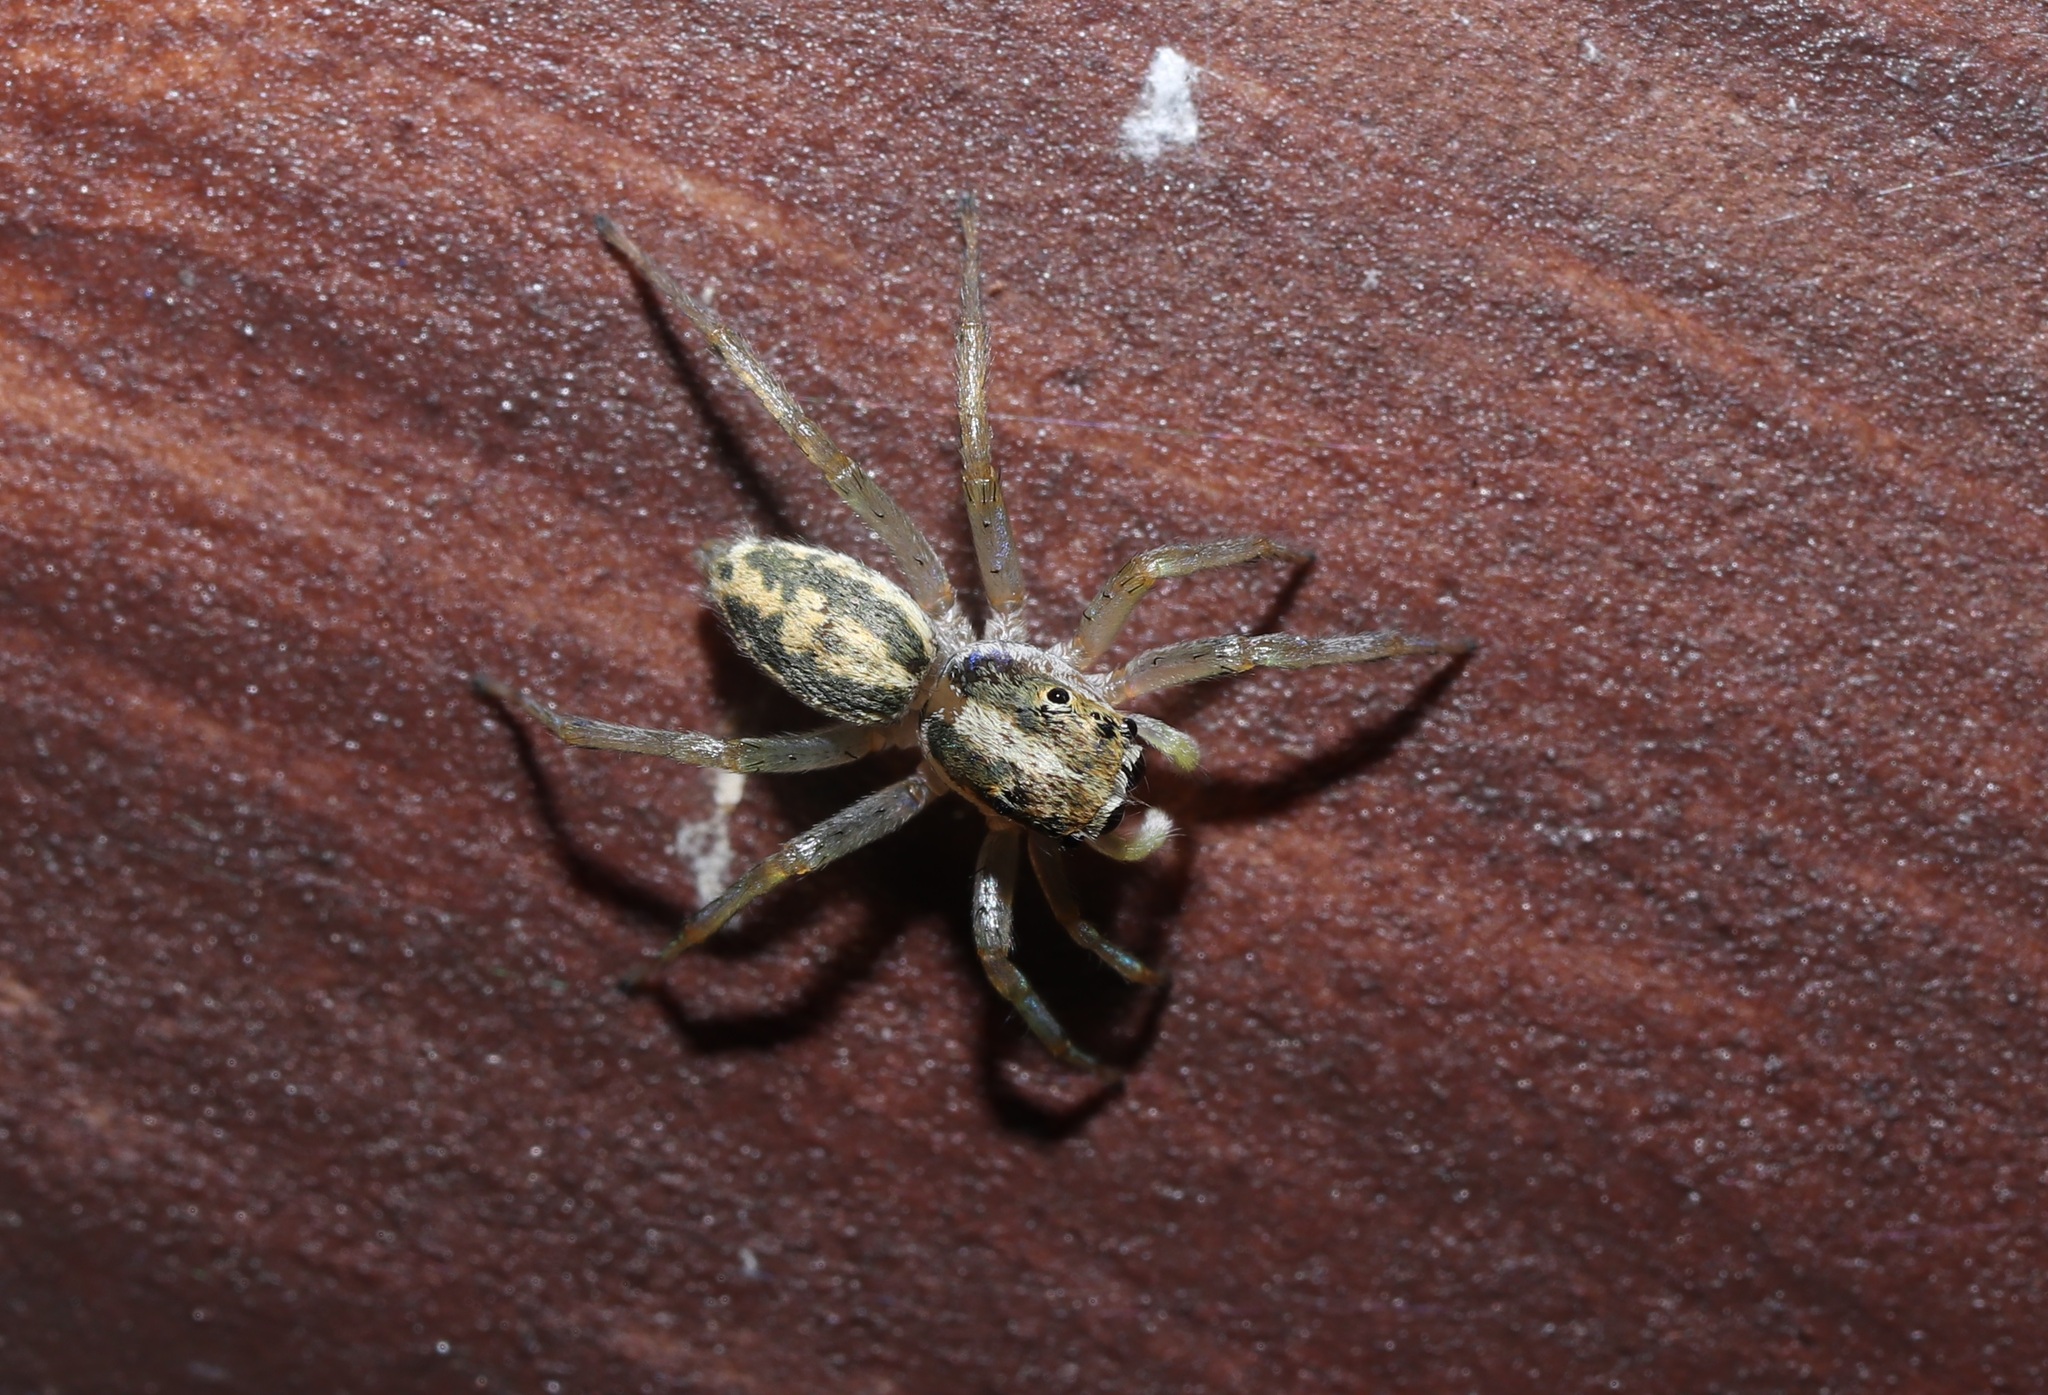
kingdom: Animalia
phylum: Arthropoda
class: Arachnida
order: Araneae
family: Salticidae
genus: Phintella
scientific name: Phintella abnormis
